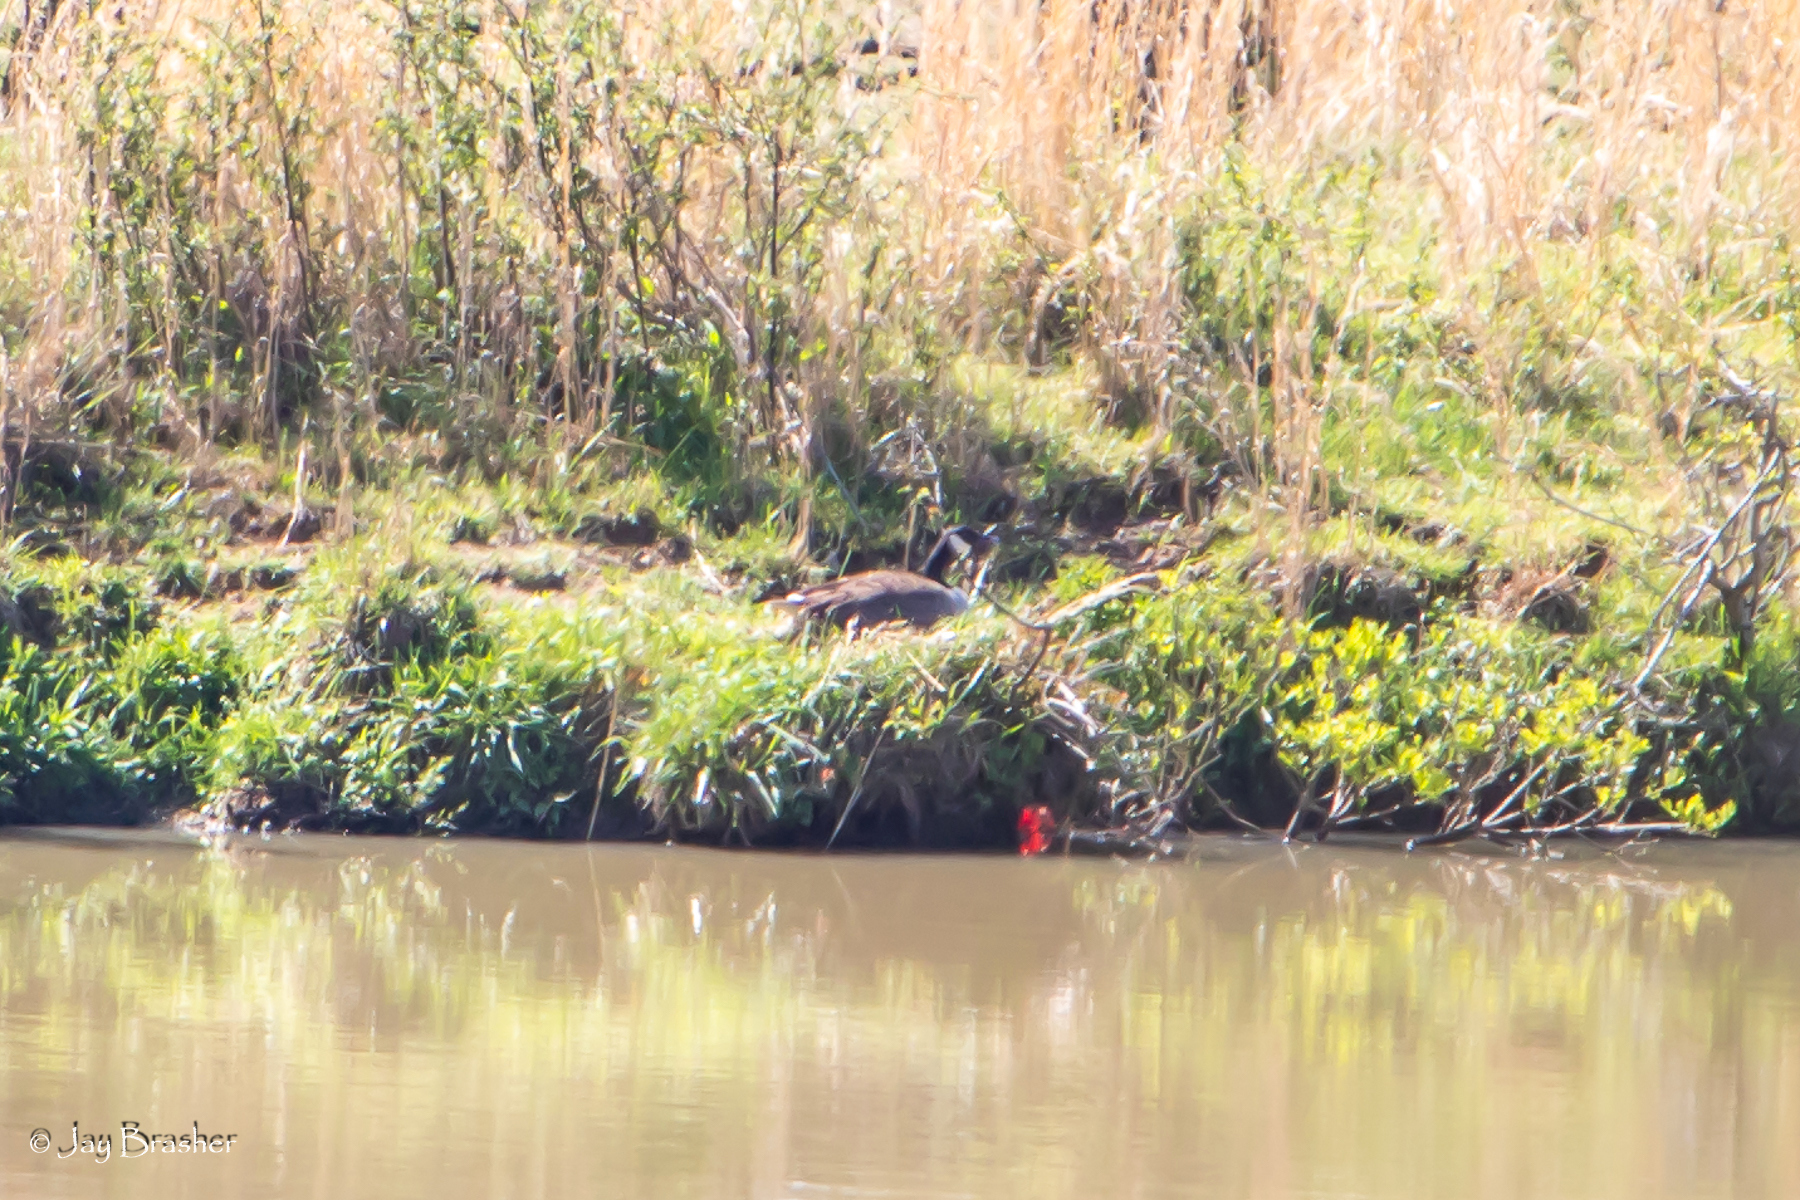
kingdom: Animalia
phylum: Chordata
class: Aves
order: Anseriformes
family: Anatidae
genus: Branta
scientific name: Branta canadensis
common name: Canada goose
